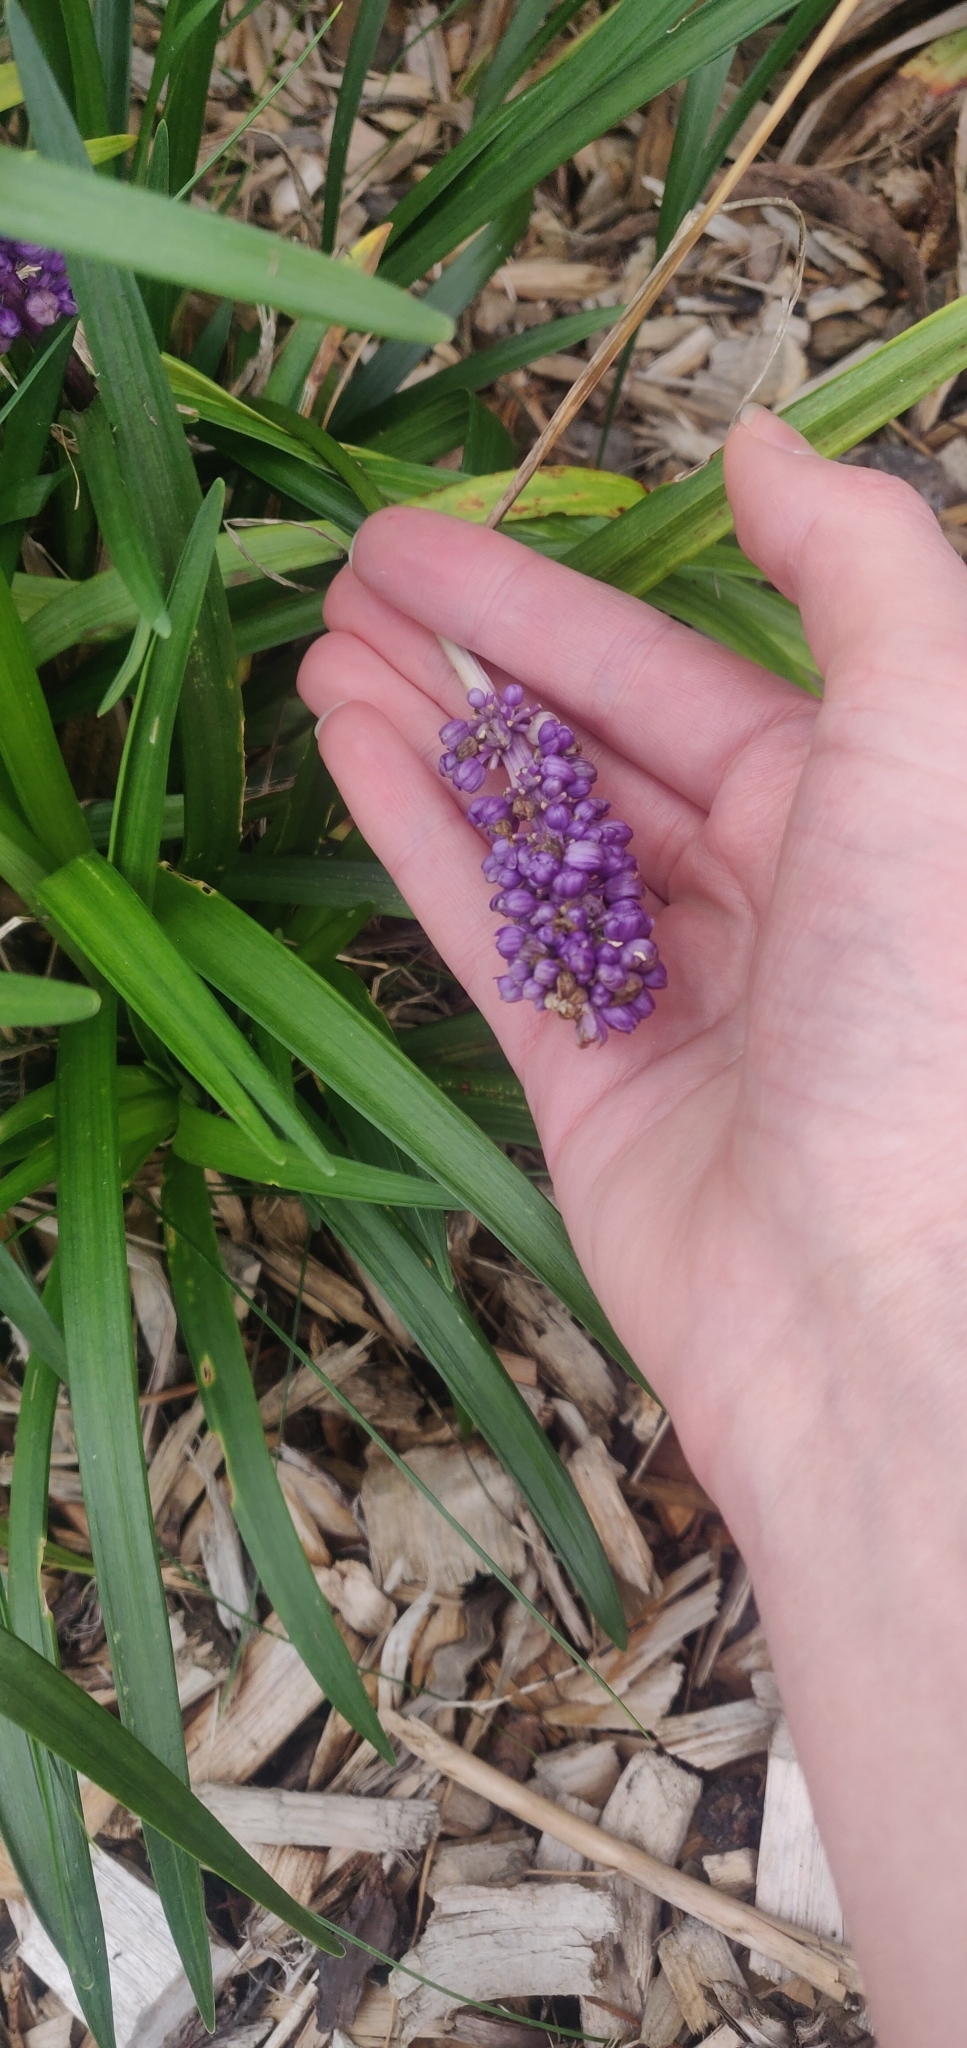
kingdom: Plantae
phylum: Tracheophyta
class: Liliopsida
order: Asparagales
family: Asparagaceae
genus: Liriope
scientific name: Liriope muscari
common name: Big blue lilyturf
